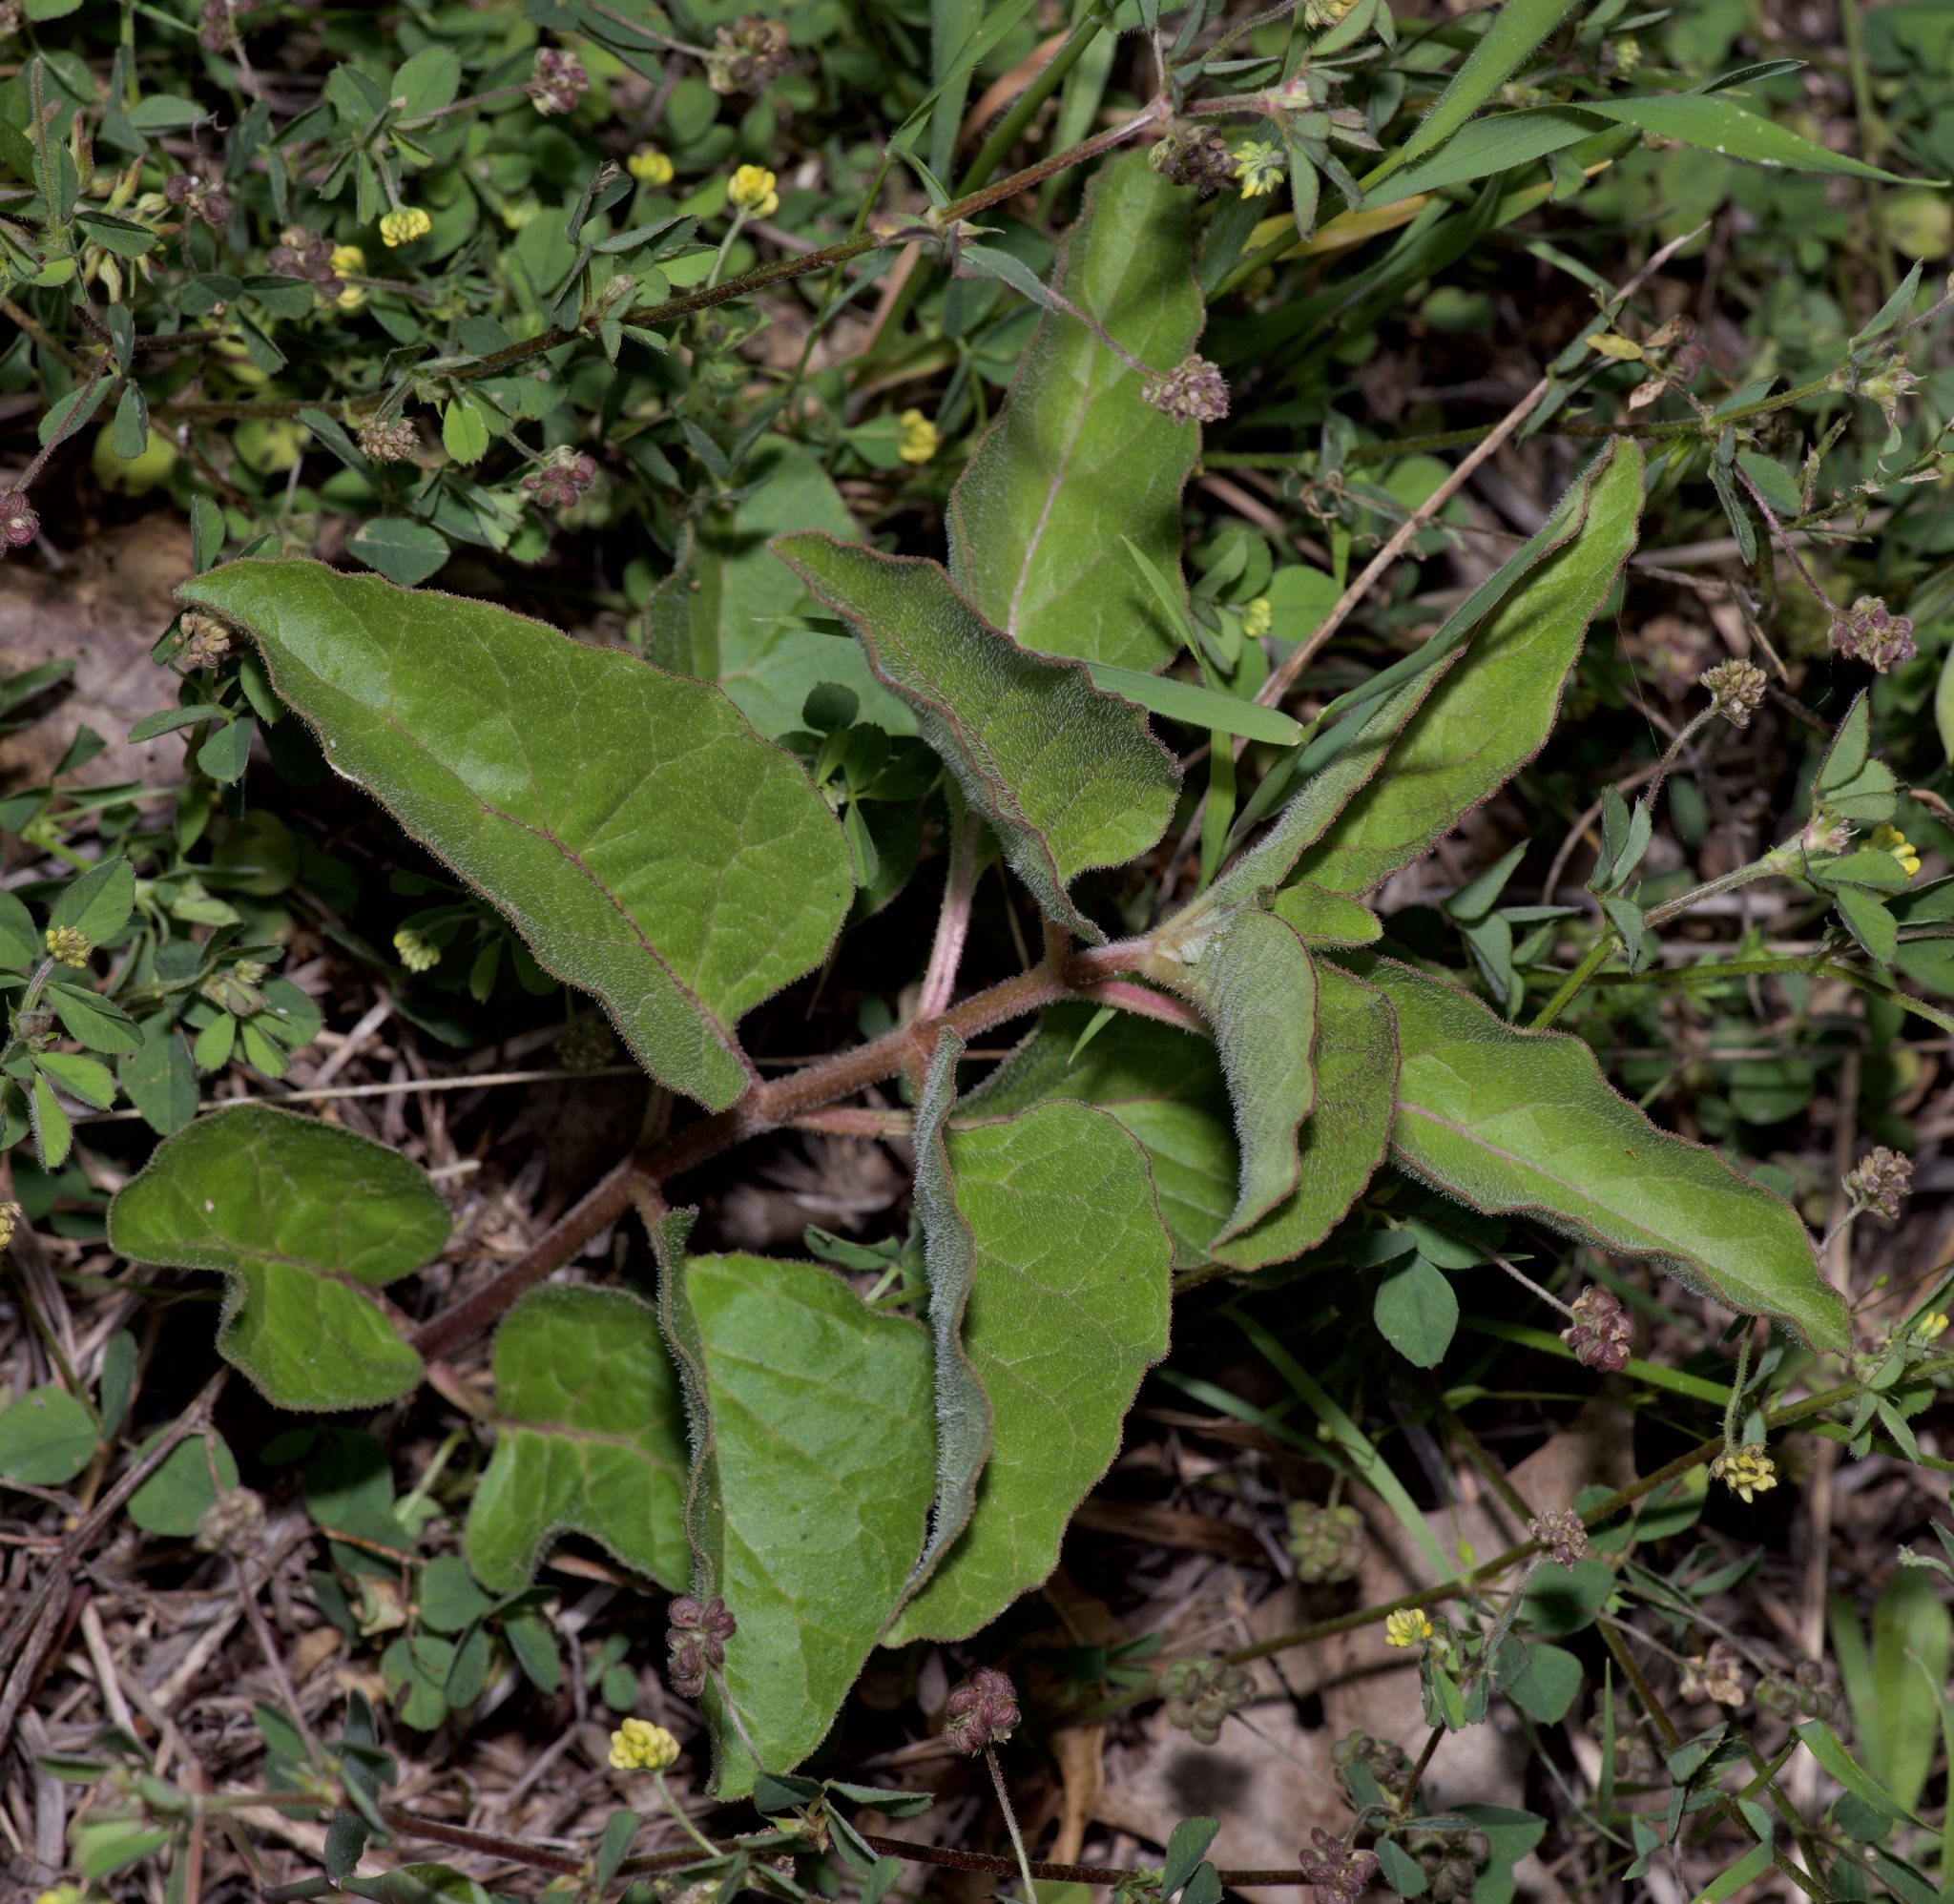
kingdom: Plantae
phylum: Tracheophyta
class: Magnoliopsida
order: Gentianales
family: Apocynaceae
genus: Asclepias
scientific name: Asclepias oenotheroides
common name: Zizotes milkweed
